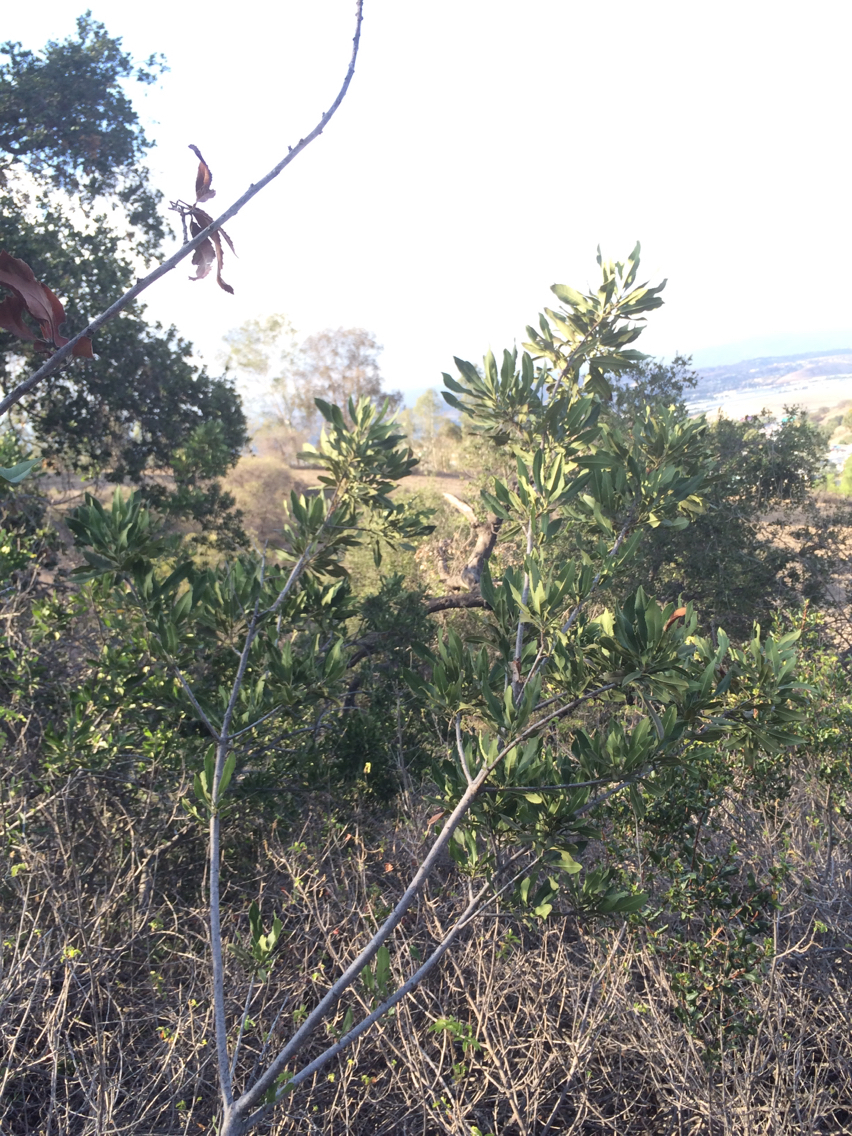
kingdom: Plantae
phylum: Tracheophyta
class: Magnoliopsida
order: Rosales
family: Rosaceae
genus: Heteromeles
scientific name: Heteromeles arbutifolia
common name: California-holly
